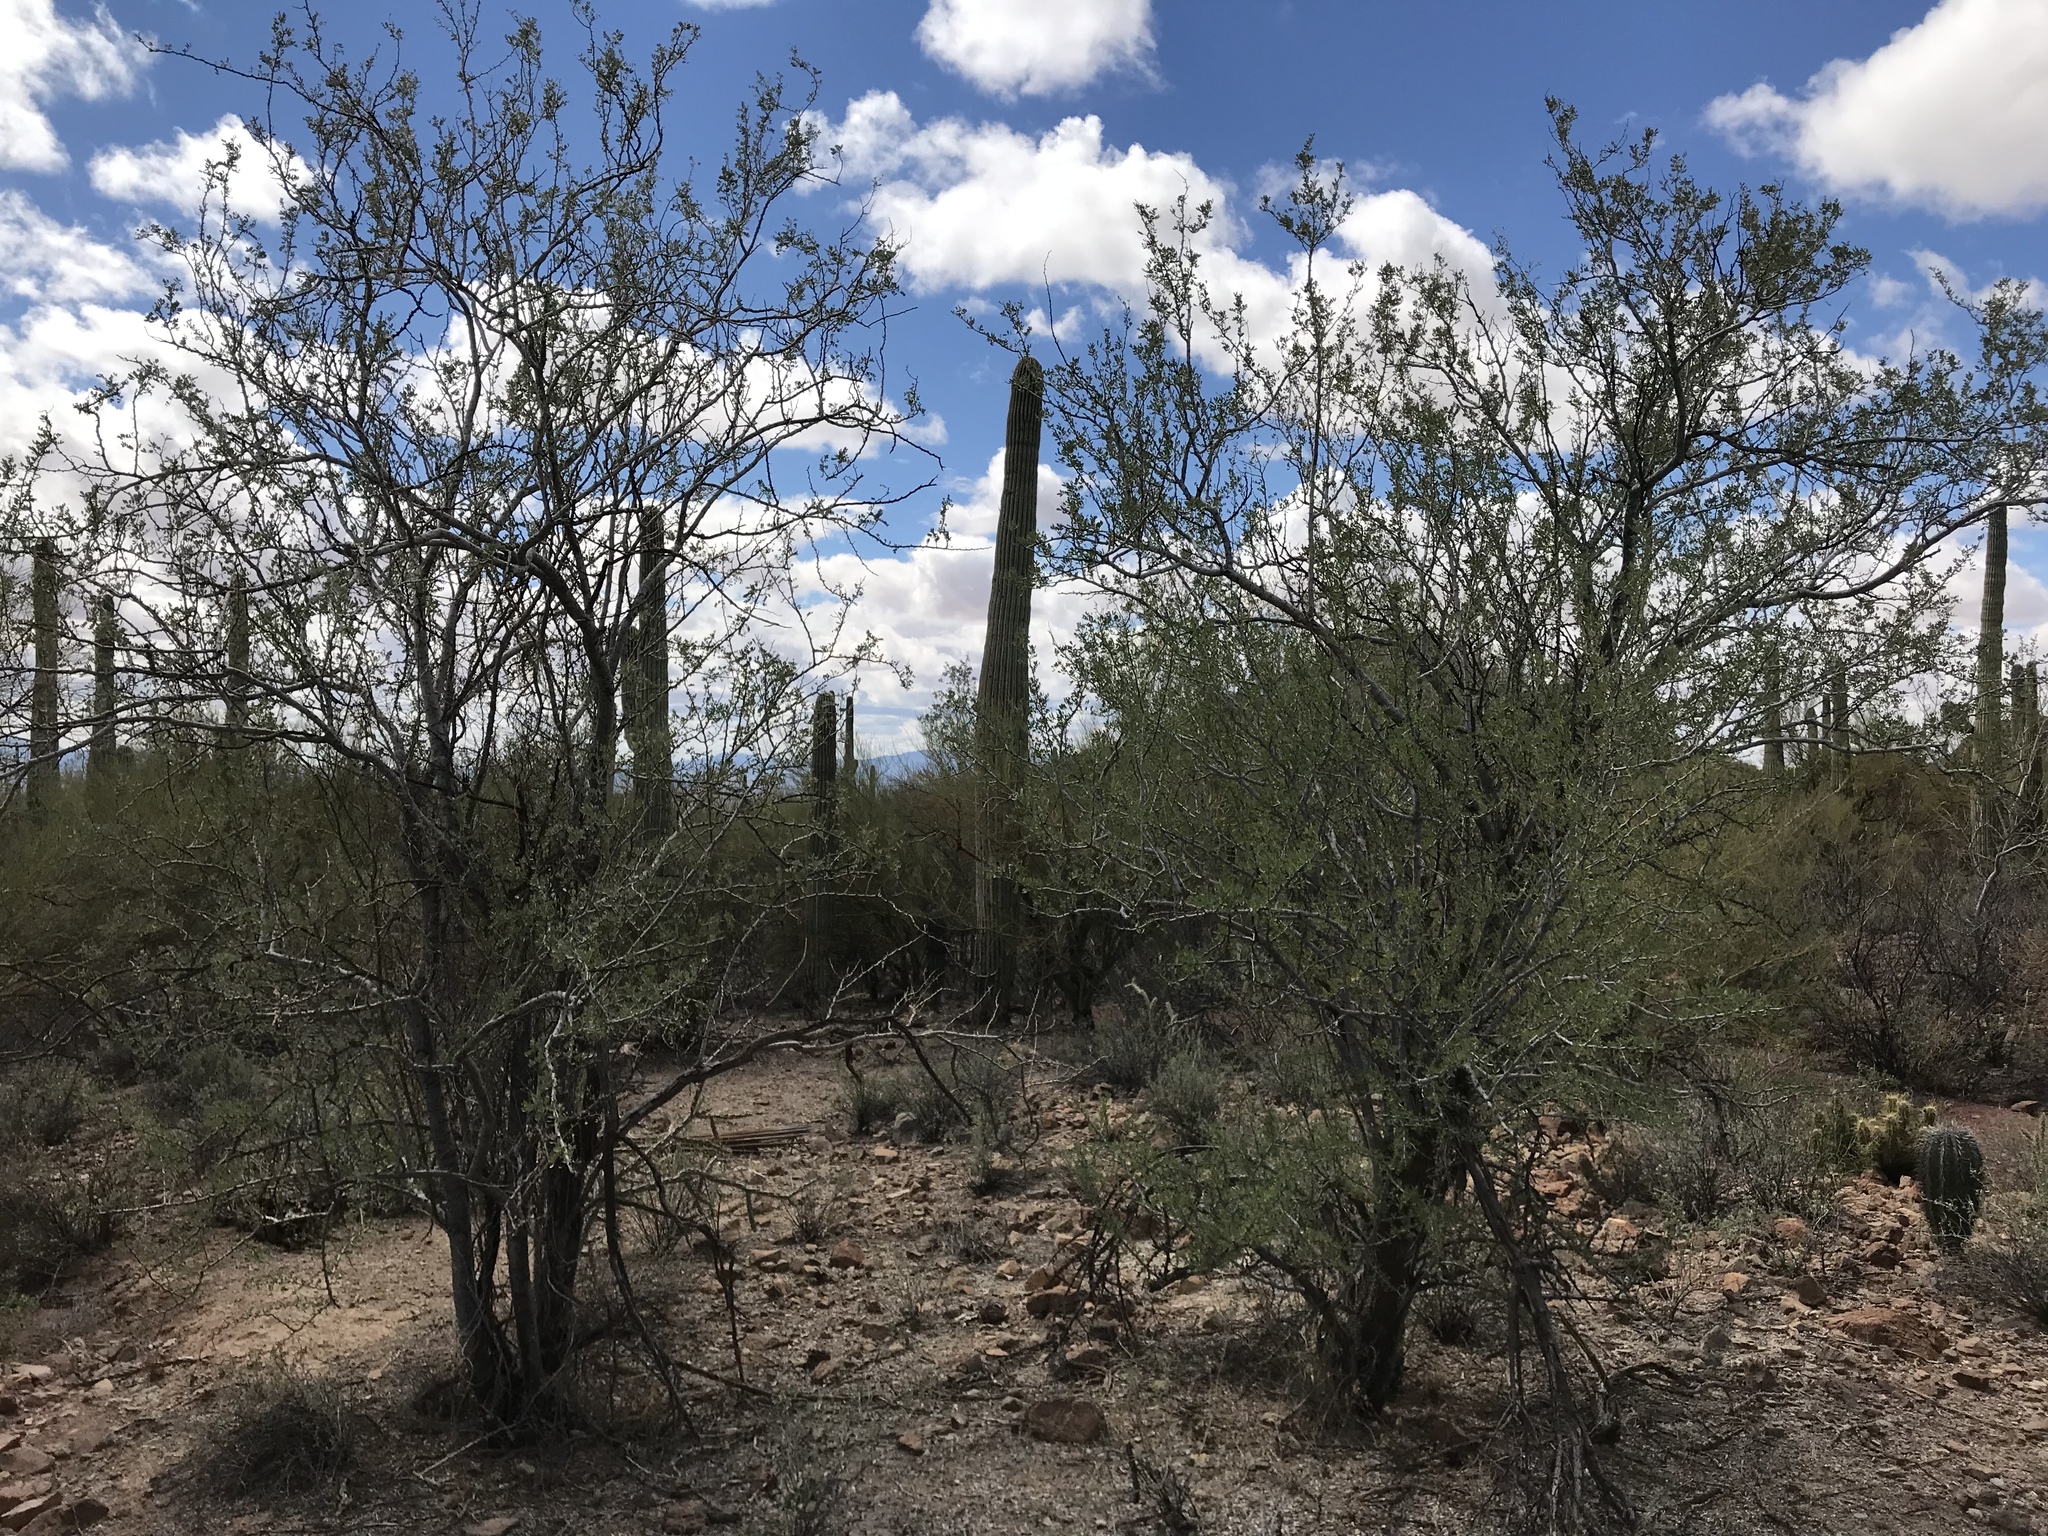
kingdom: Plantae
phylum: Tracheophyta
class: Magnoliopsida
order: Fabales
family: Fabaceae
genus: Olneya
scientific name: Olneya tesota
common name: Desert ironwood
